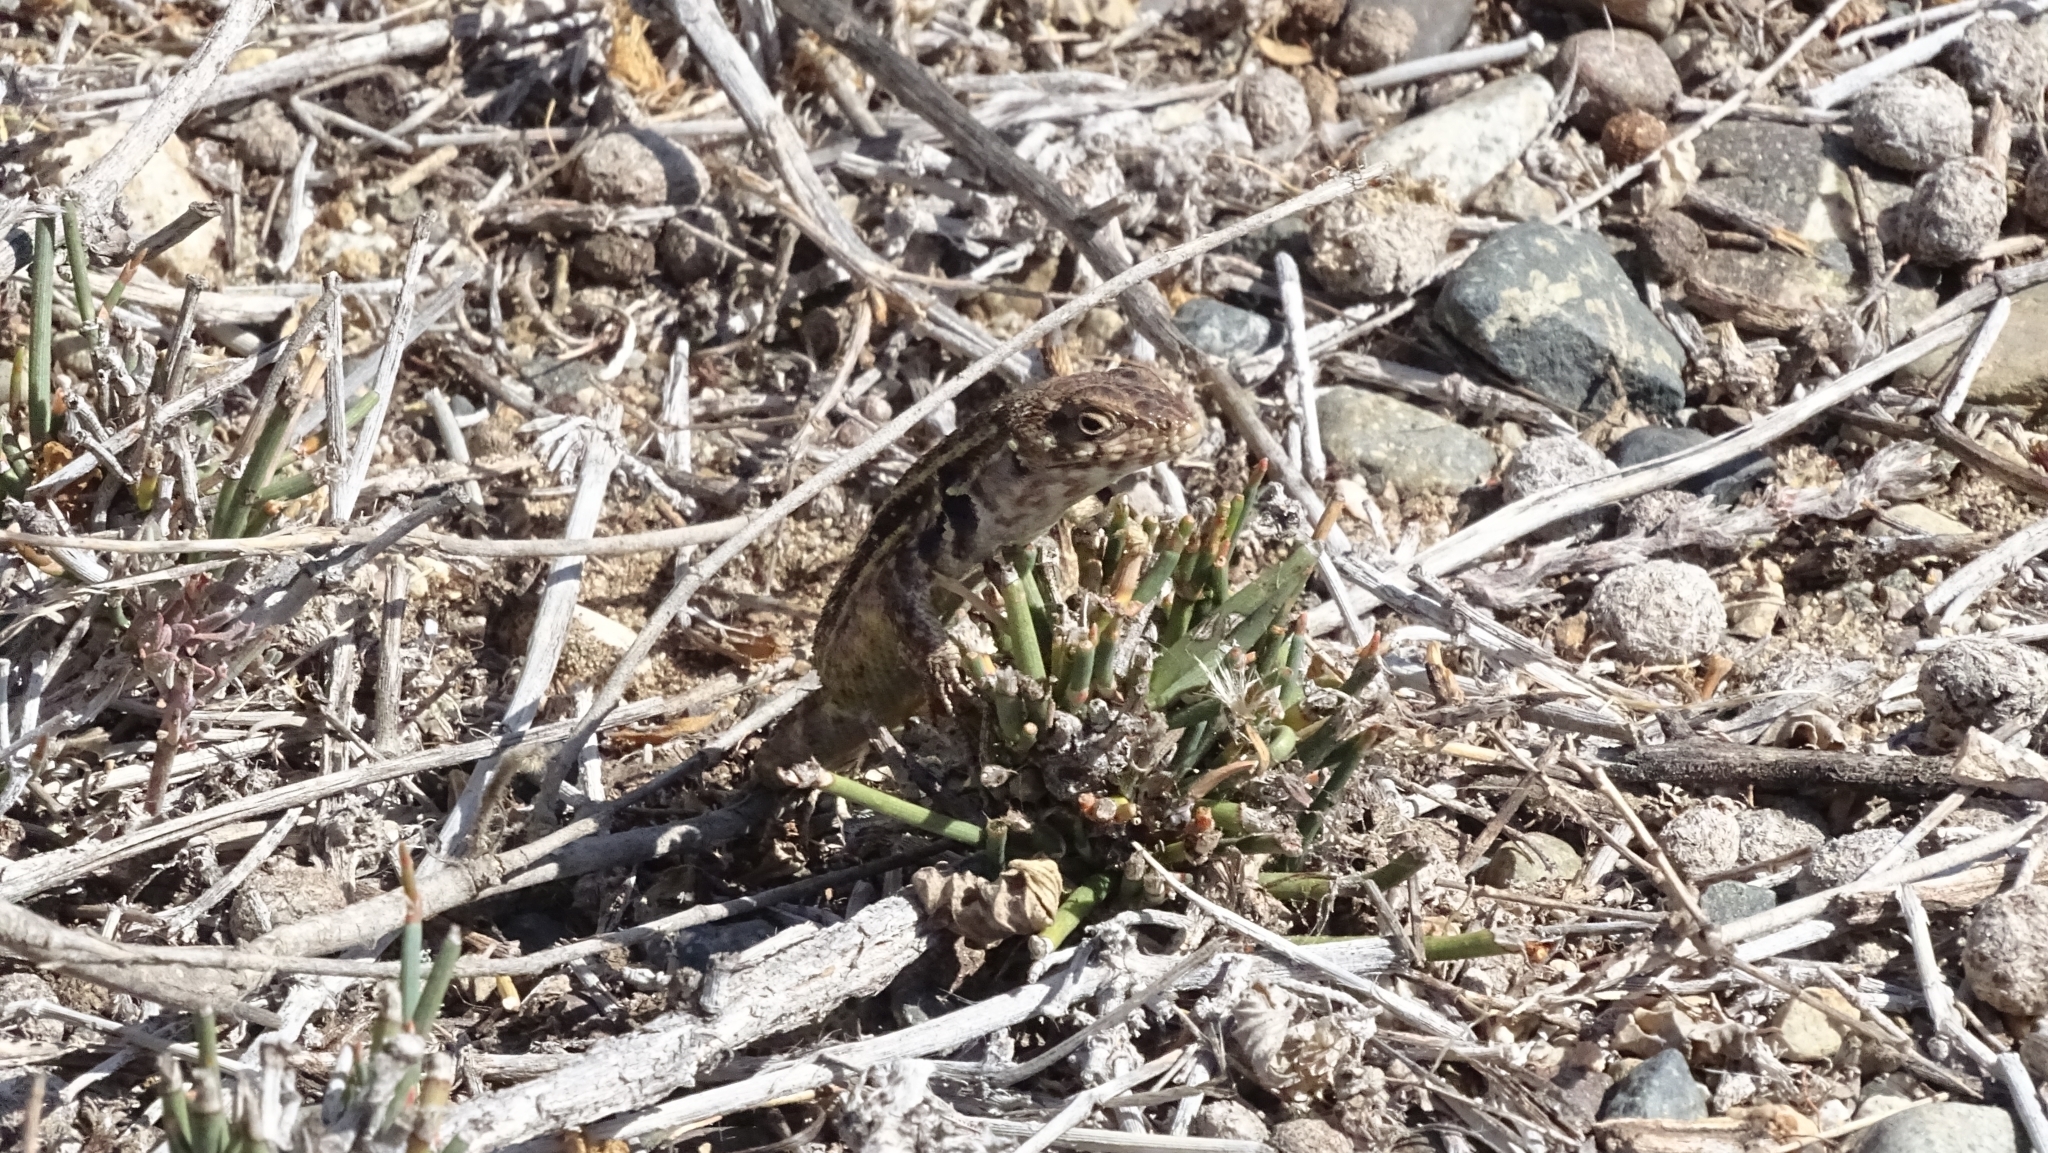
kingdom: Animalia
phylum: Chordata
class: Squamata
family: Liolaemidae
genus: Liolaemus
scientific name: Liolaemus zapallarensis
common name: Zapallaren tree iguana
